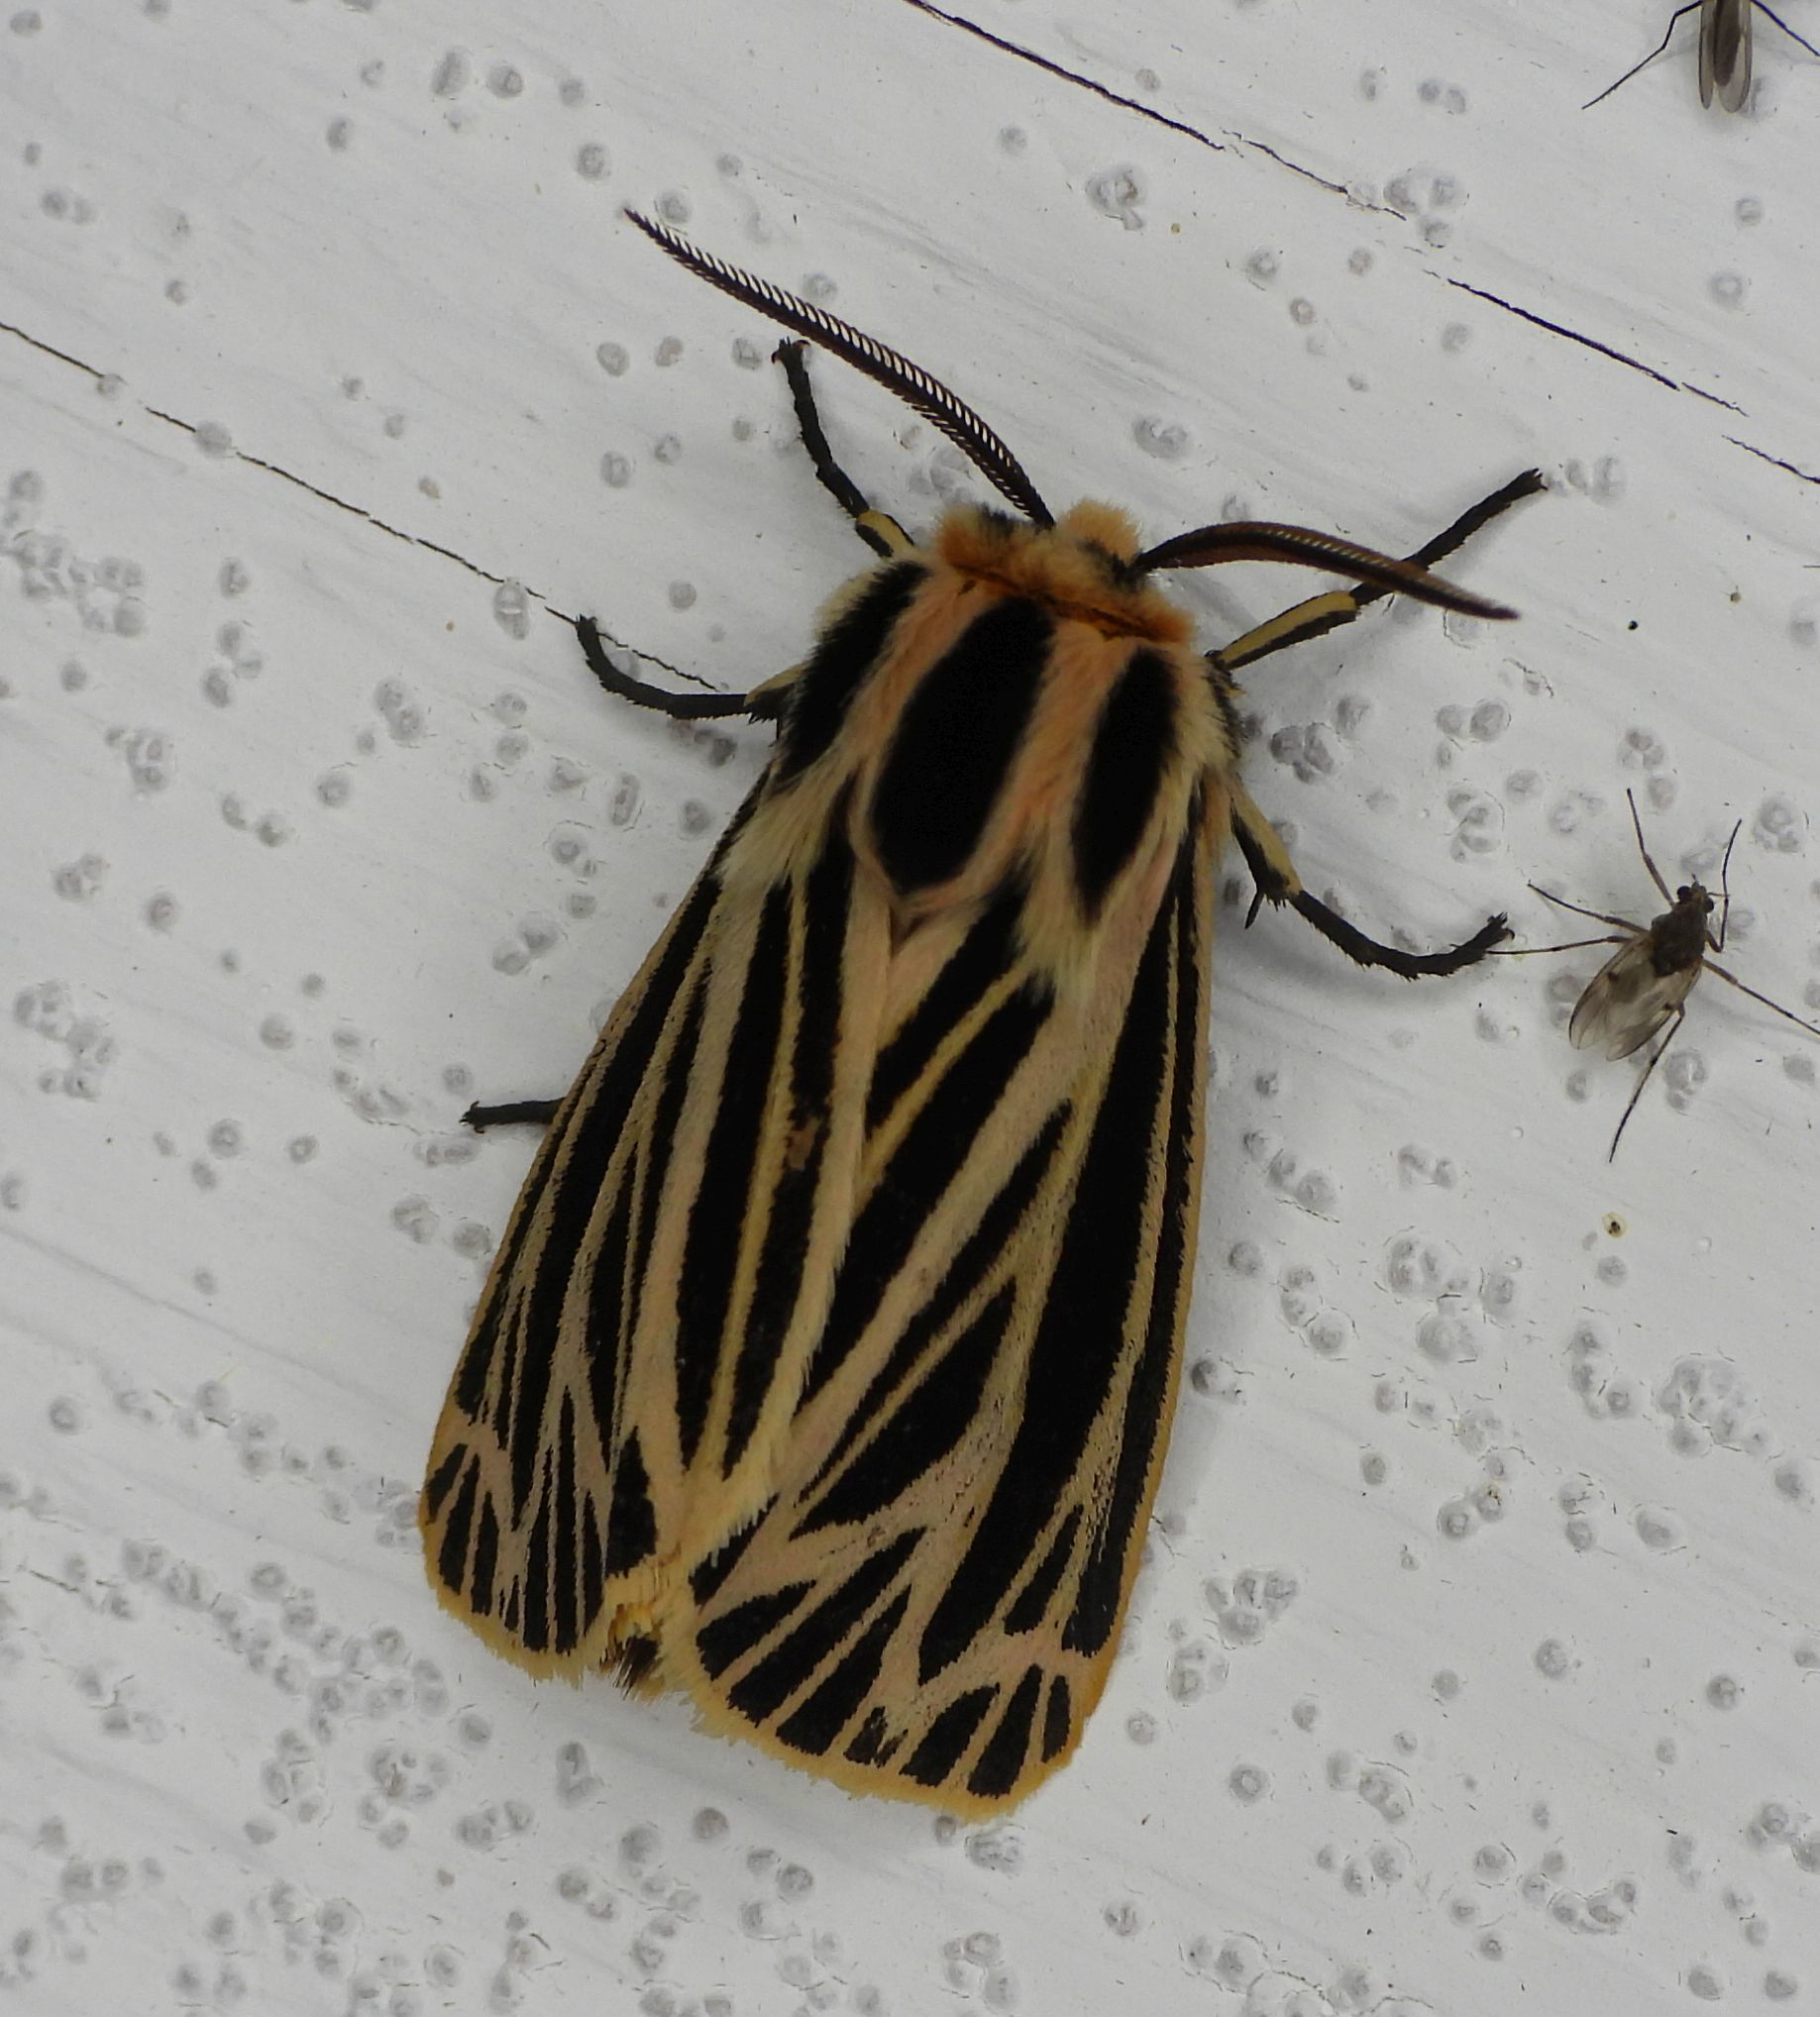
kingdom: Animalia
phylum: Arthropoda
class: Insecta
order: Lepidoptera
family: Erebidae
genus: Grammia
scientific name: Grammia virguncula
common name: Little tiger moth
